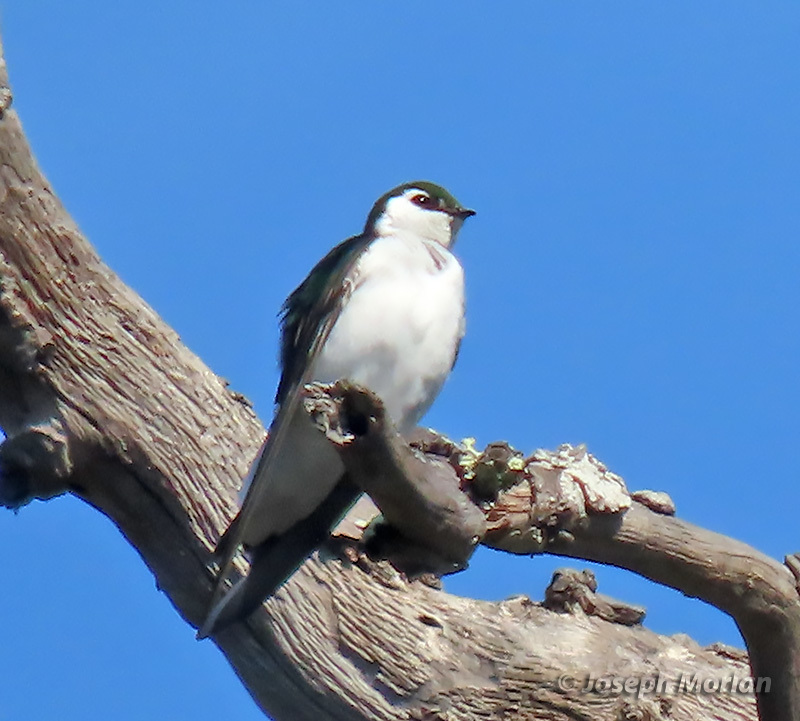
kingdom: Animalia
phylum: Chordata
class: Aves
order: Passeriformes
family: Hirundinidae
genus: Tachycineta
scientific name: Tachycineta thalassina
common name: Violet-green swallow
